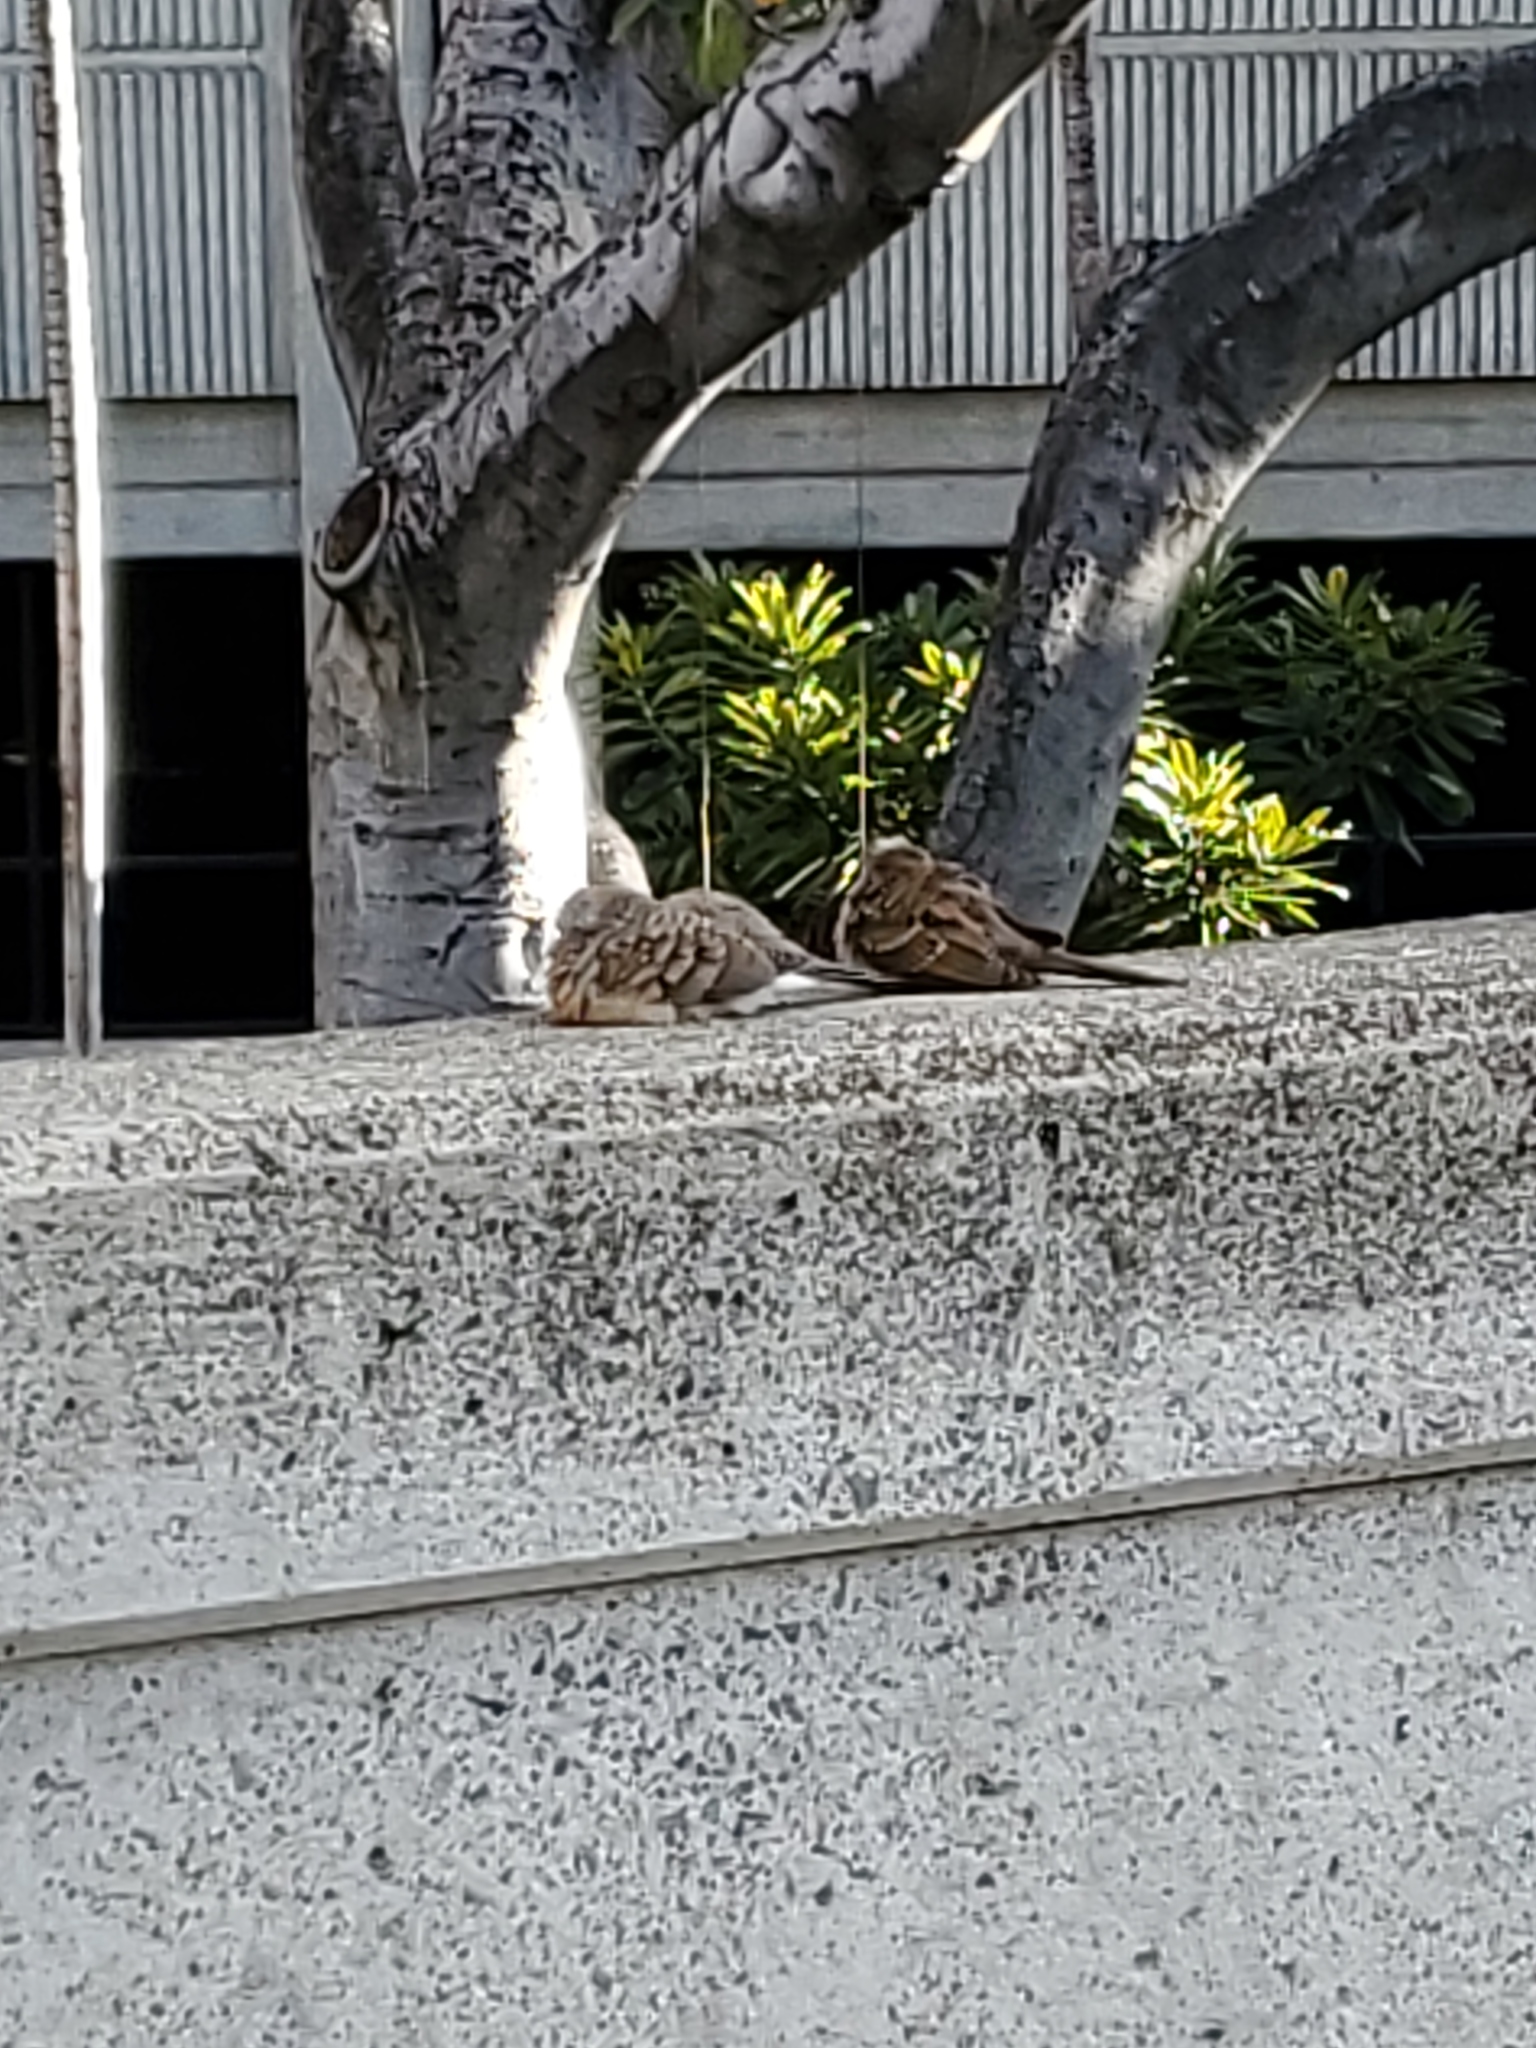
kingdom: Animalia
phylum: Chordata
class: Aves
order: Columbiformes
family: Columbidae
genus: Geopelia
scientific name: Geopelia striata
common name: Zebra dove
